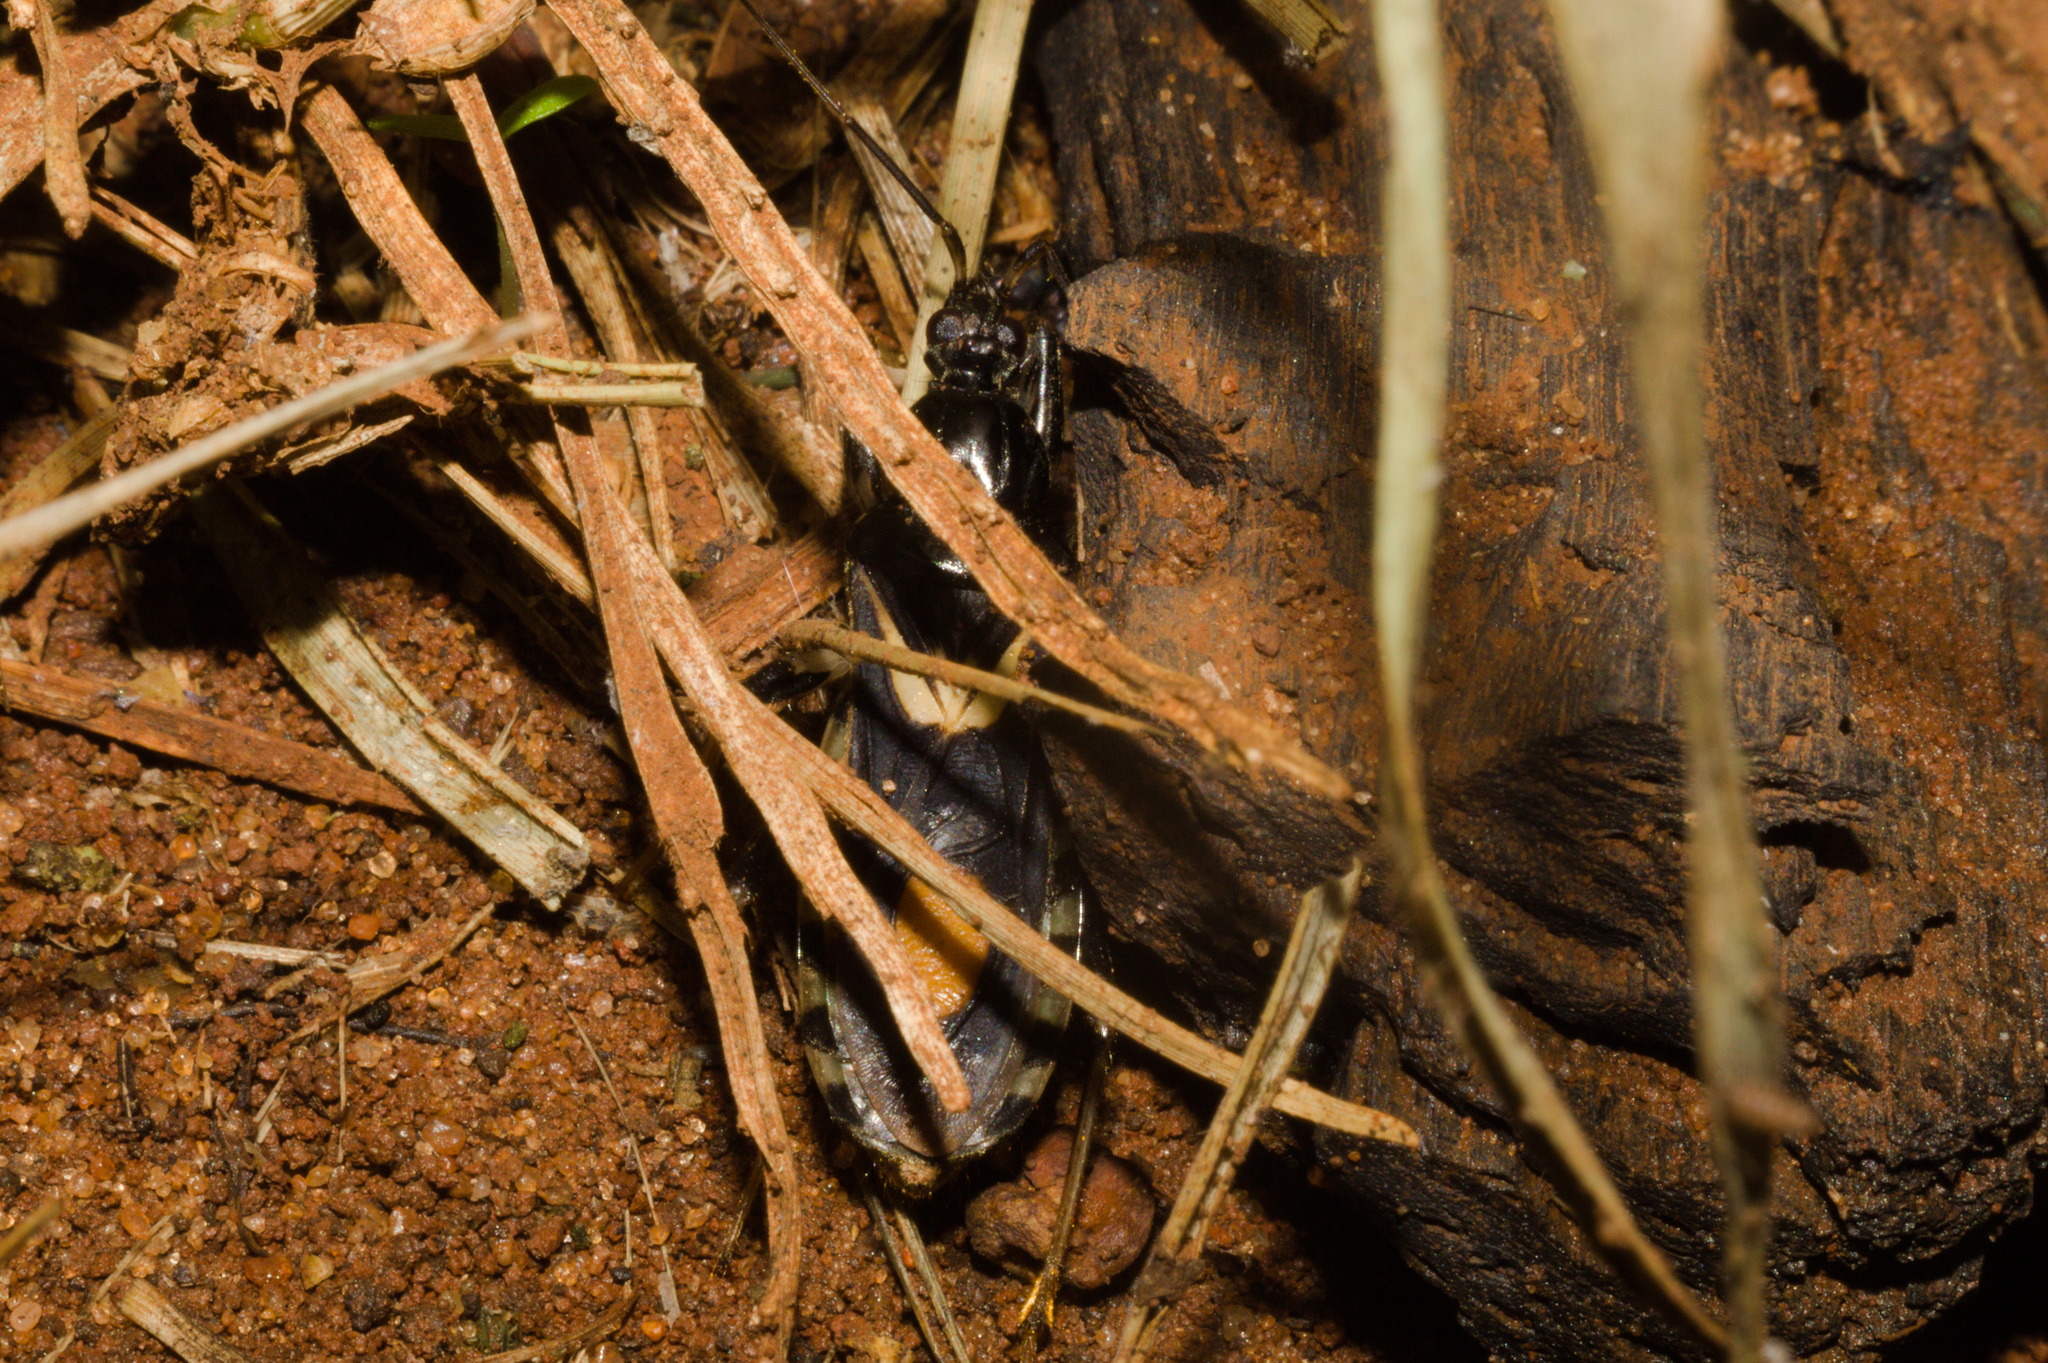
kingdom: Animalia
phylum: Arthropoda
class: Insecta
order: Hemiptera
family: Reduviidae
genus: Rasahus
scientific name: Rasahus hamatus
